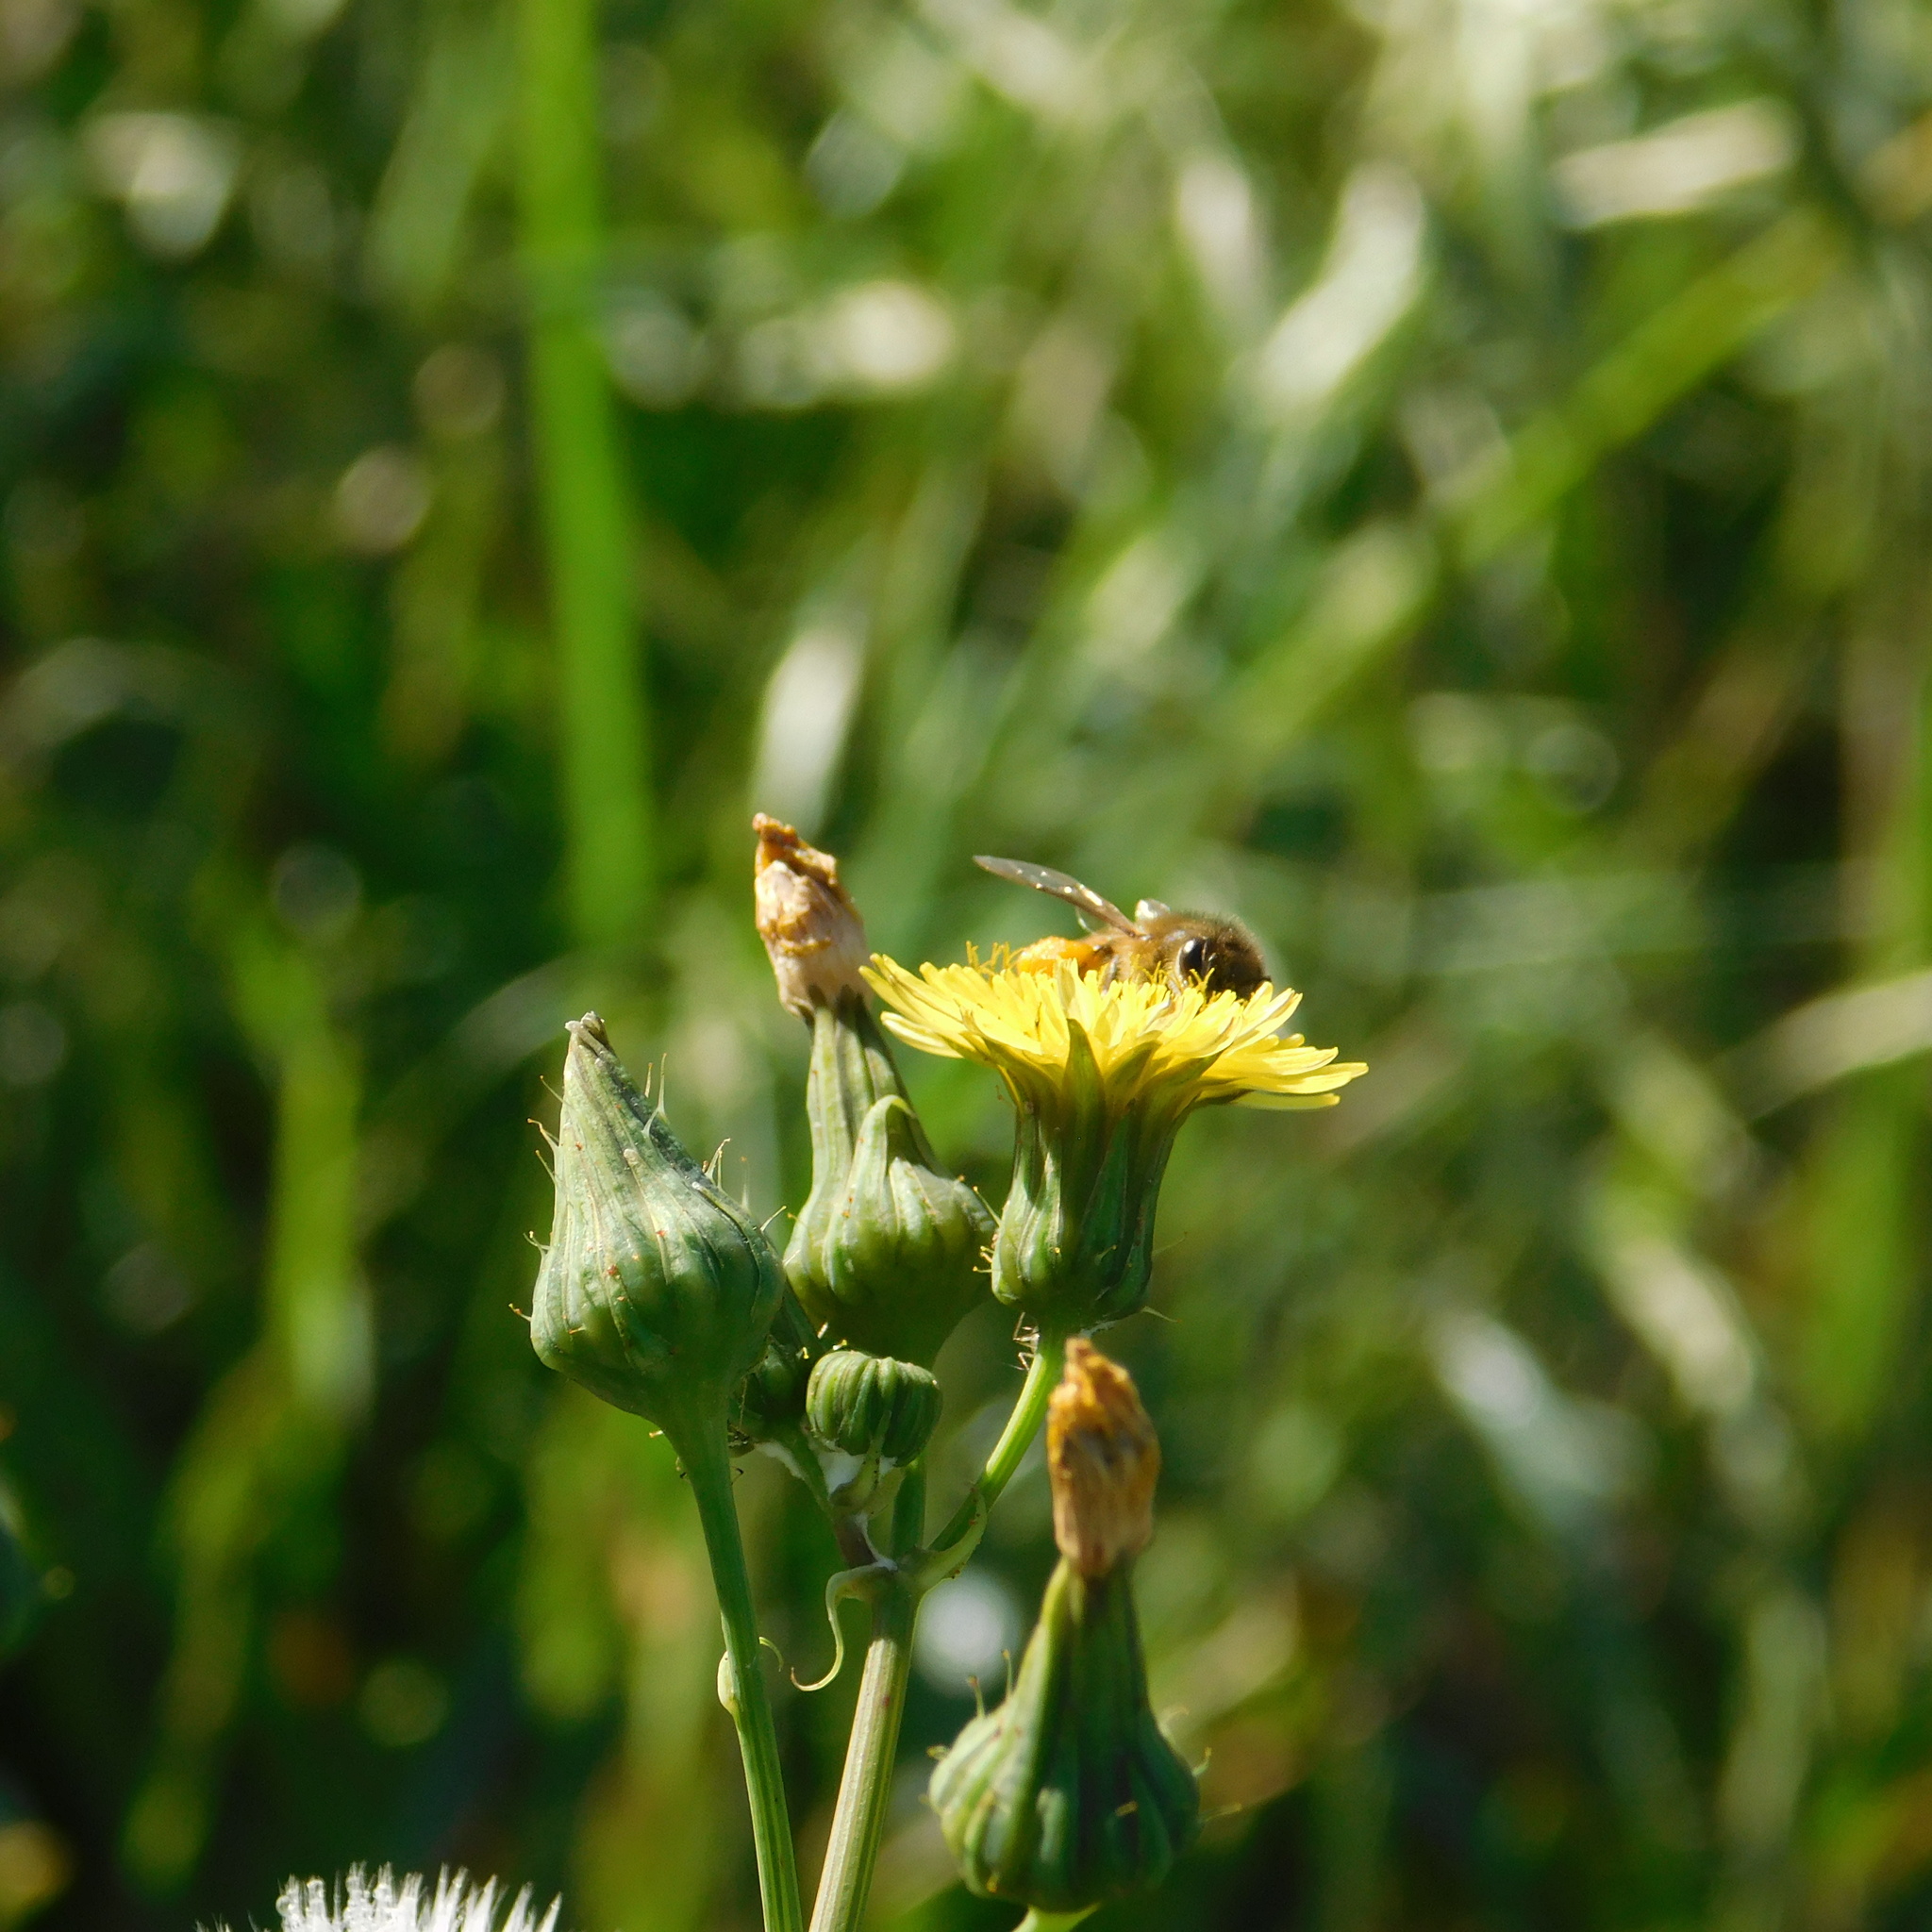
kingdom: Animalia
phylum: Arthropoda
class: Insecta
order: Hymenoptera
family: Apidae
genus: Apis
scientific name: Apis mellifera
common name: Honey bee
